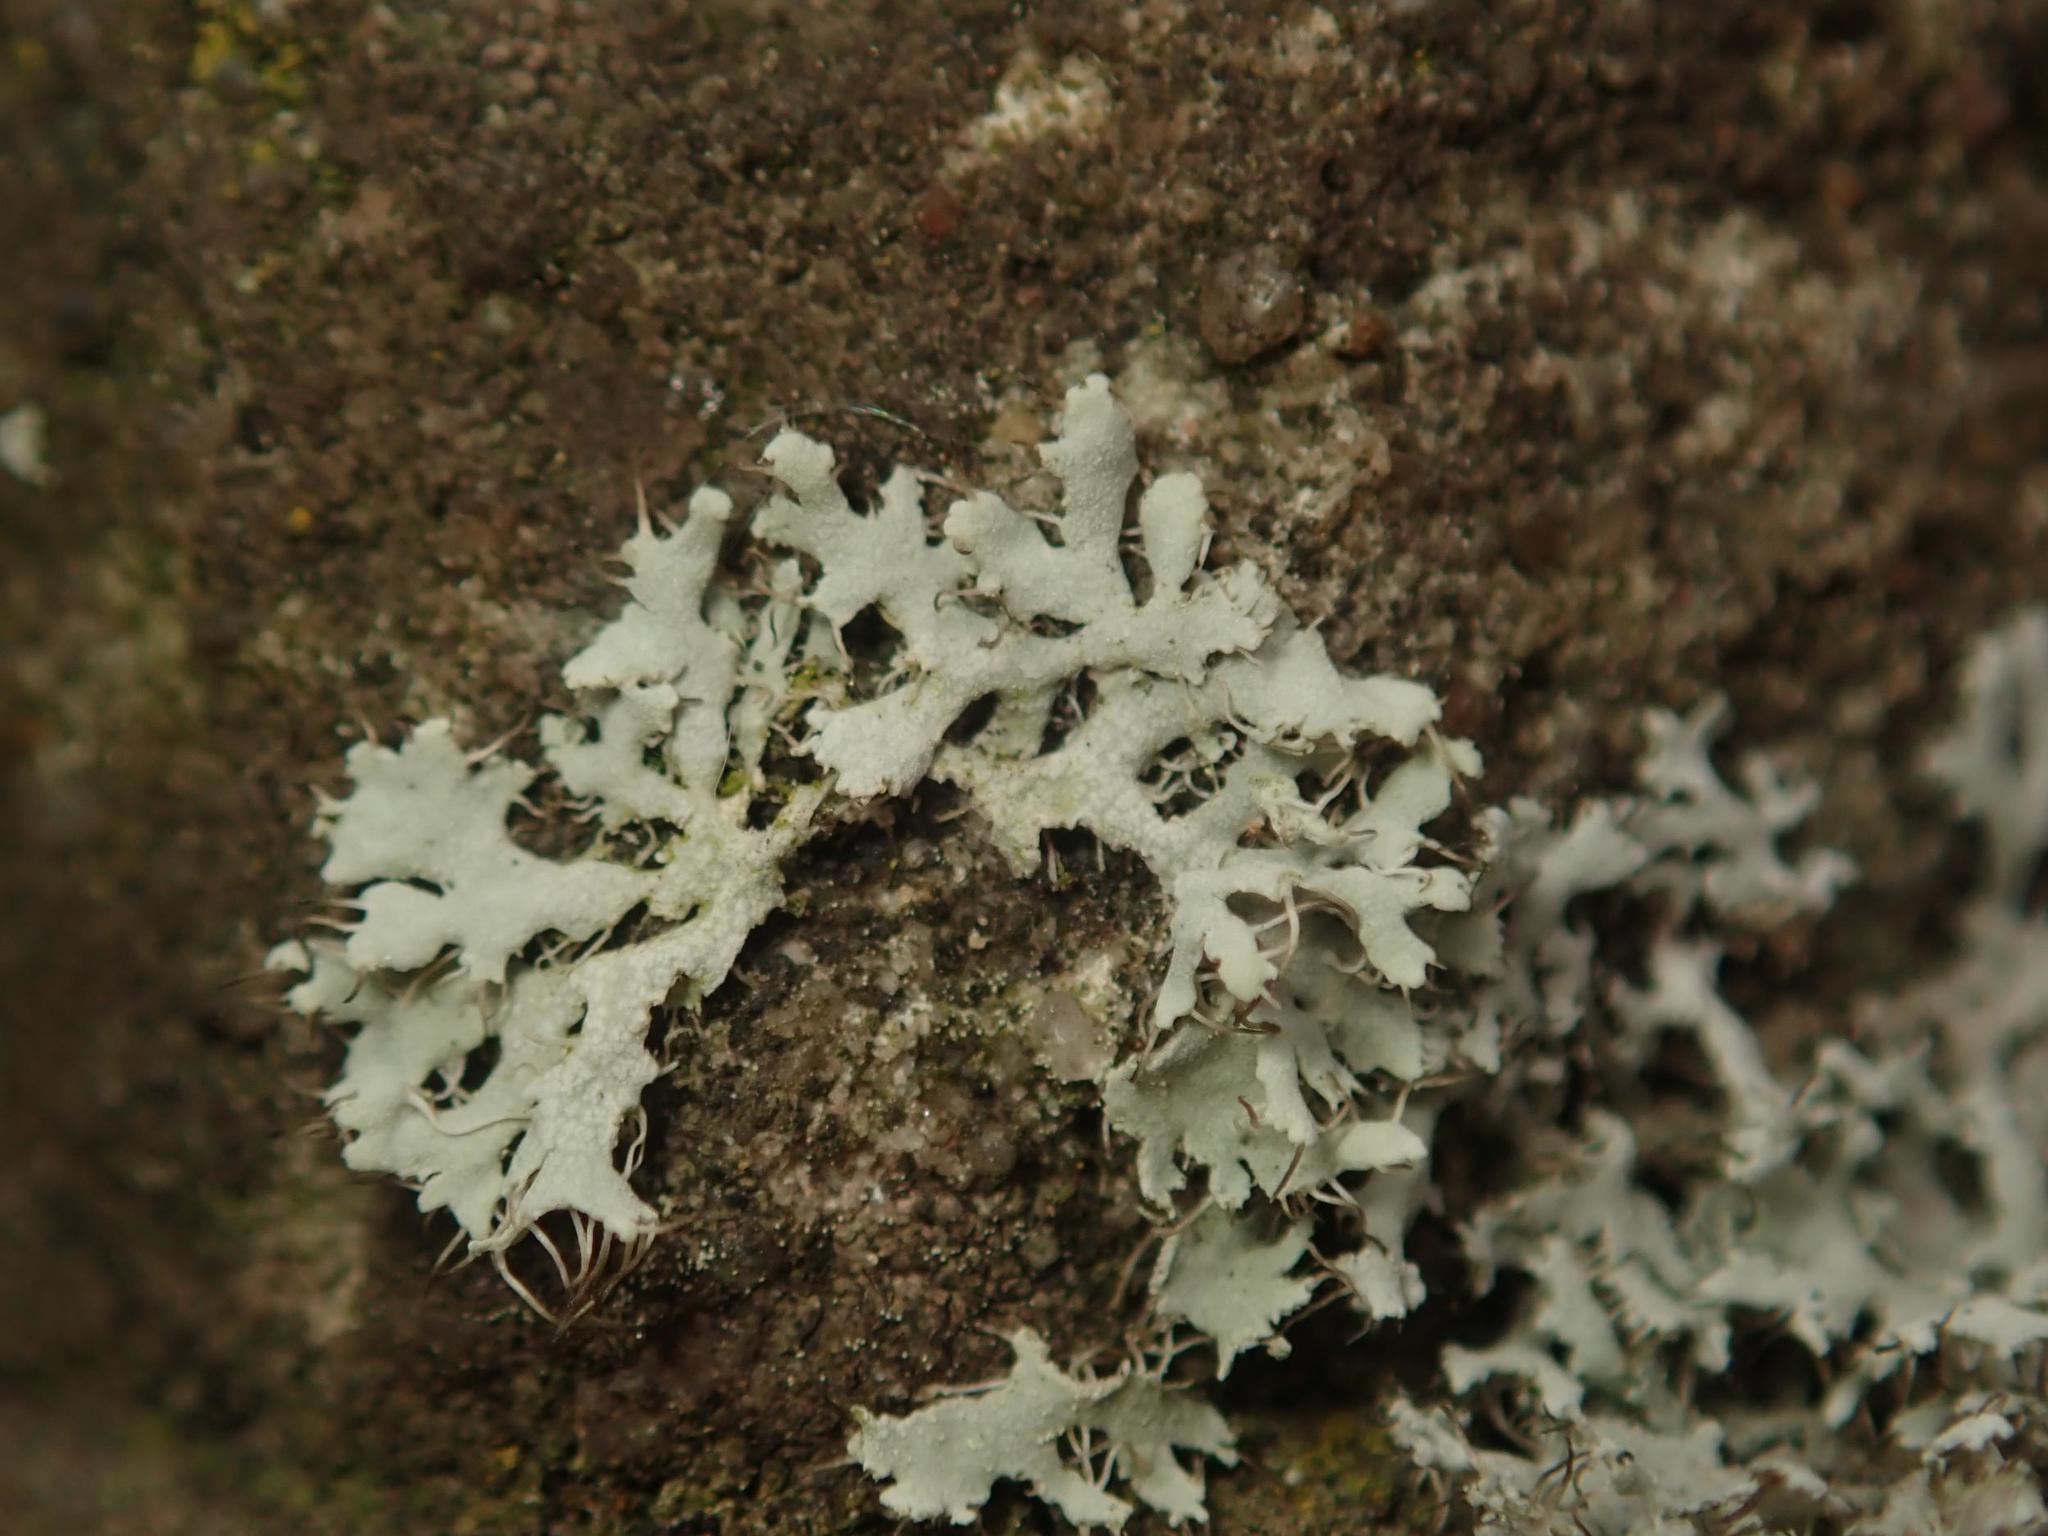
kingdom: Fungi
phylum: Ascomycota
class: Lecanoromycetes
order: Caliciales
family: Physciaceae
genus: Physcia
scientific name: Physcia adscendens
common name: Hooded rosette lichen
